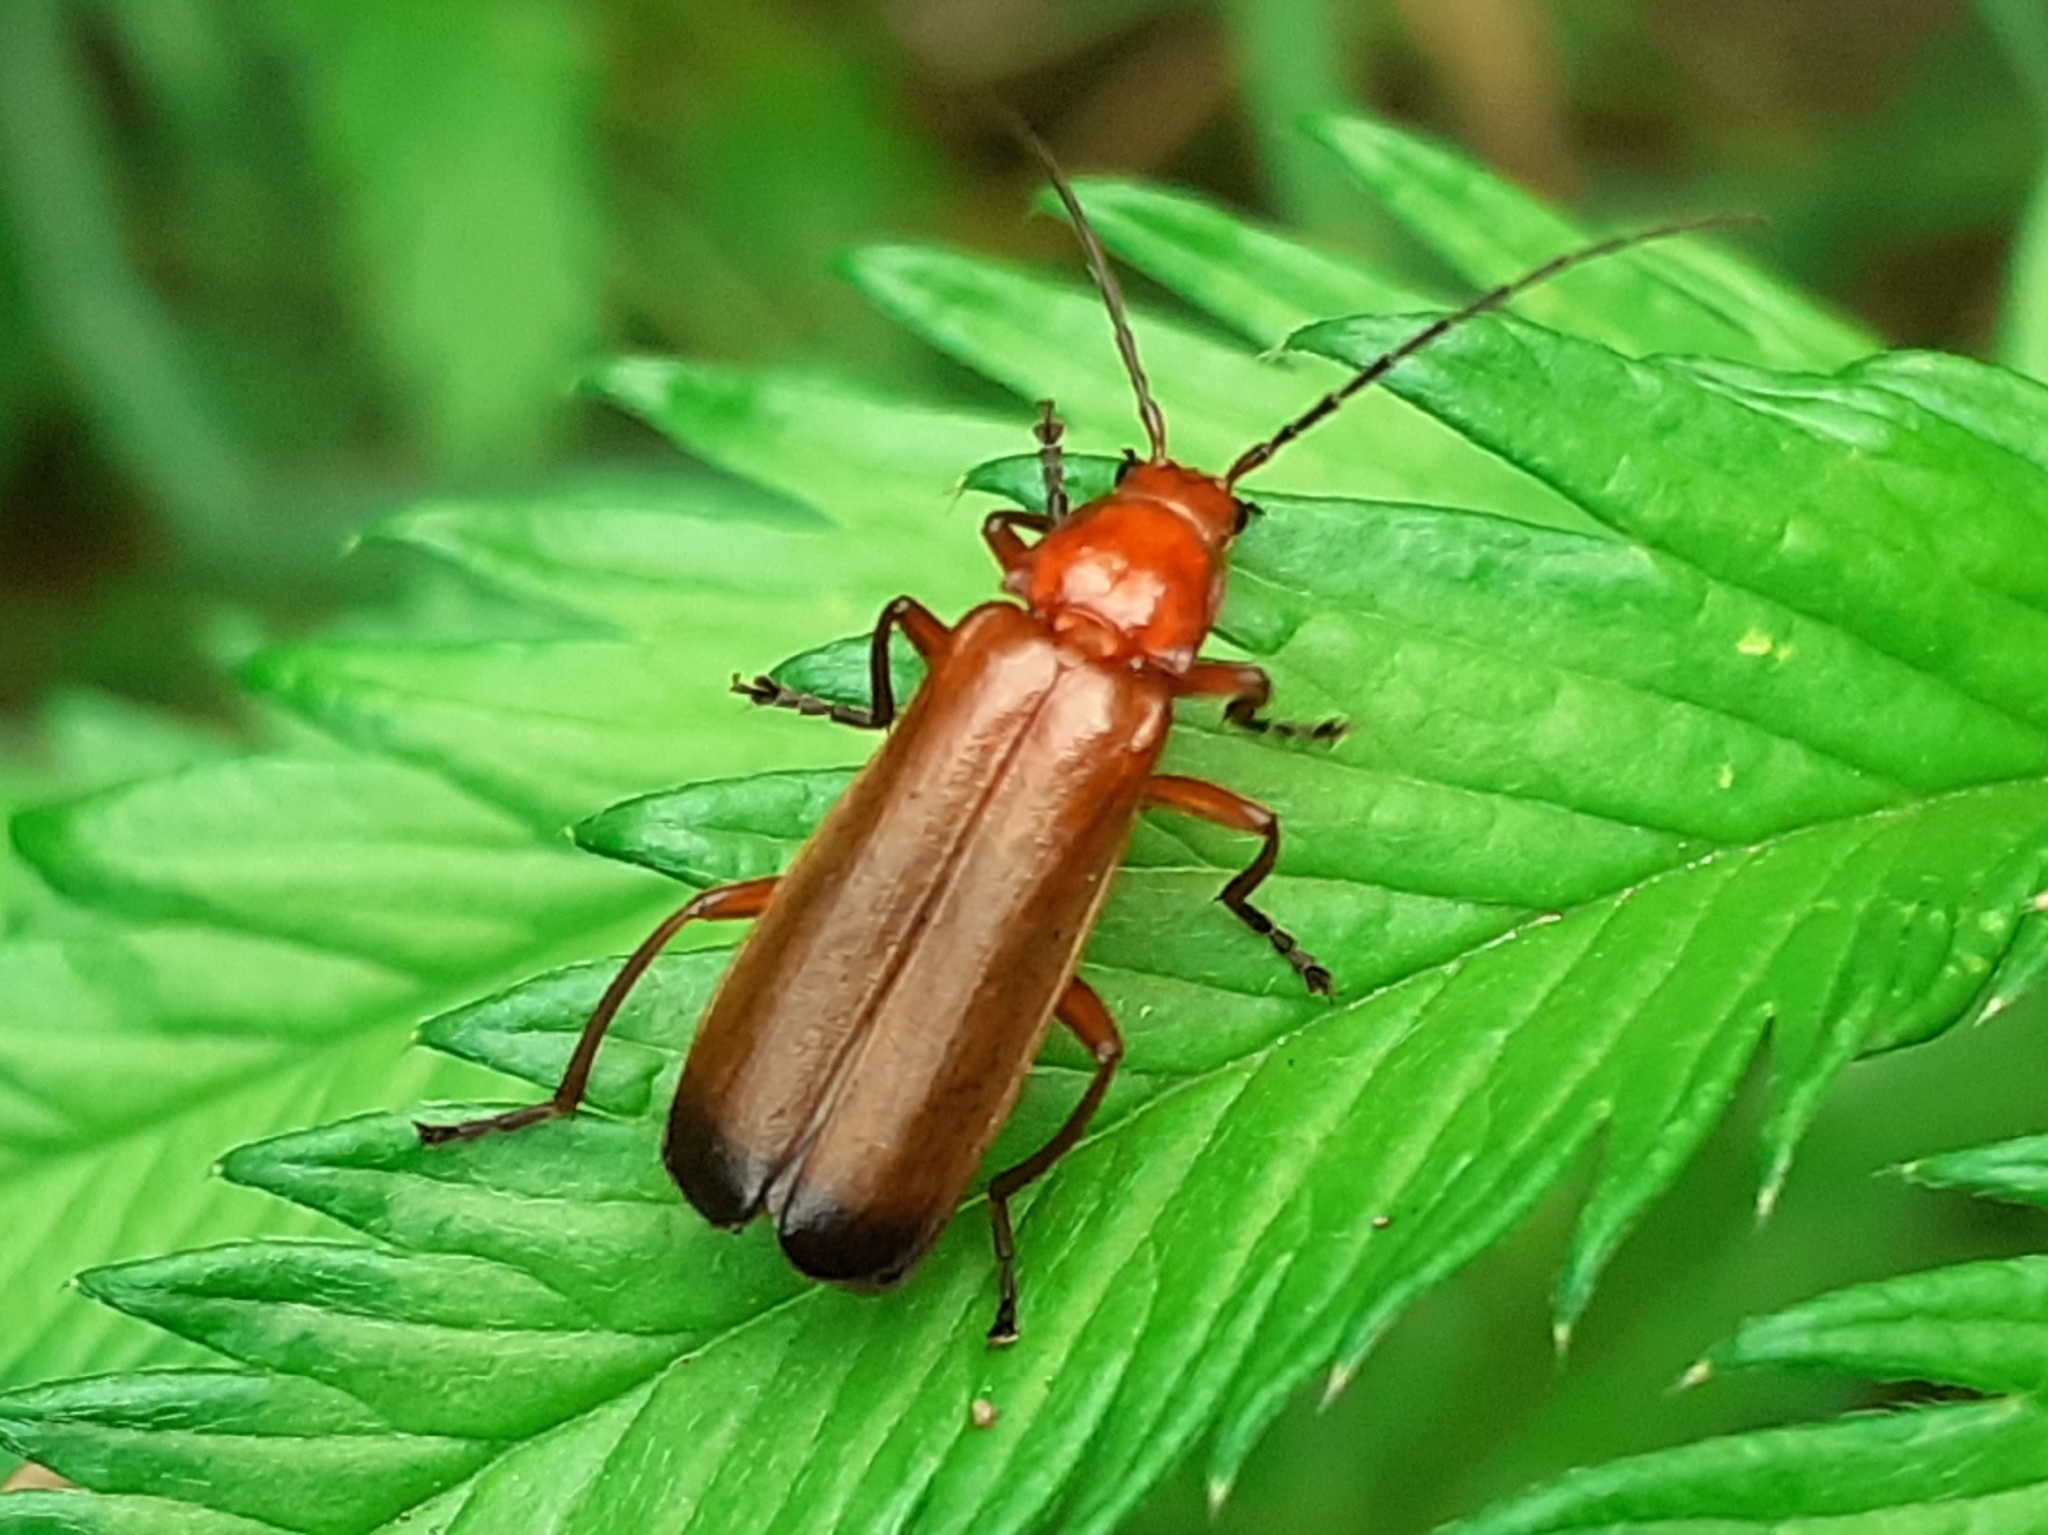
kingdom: Animalia
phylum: Arthropoda
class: Insecta
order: Coleoptera
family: Cantharidae
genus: Rhagonycha
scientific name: Rhagonycha fulva
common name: Common red soldier beetle
